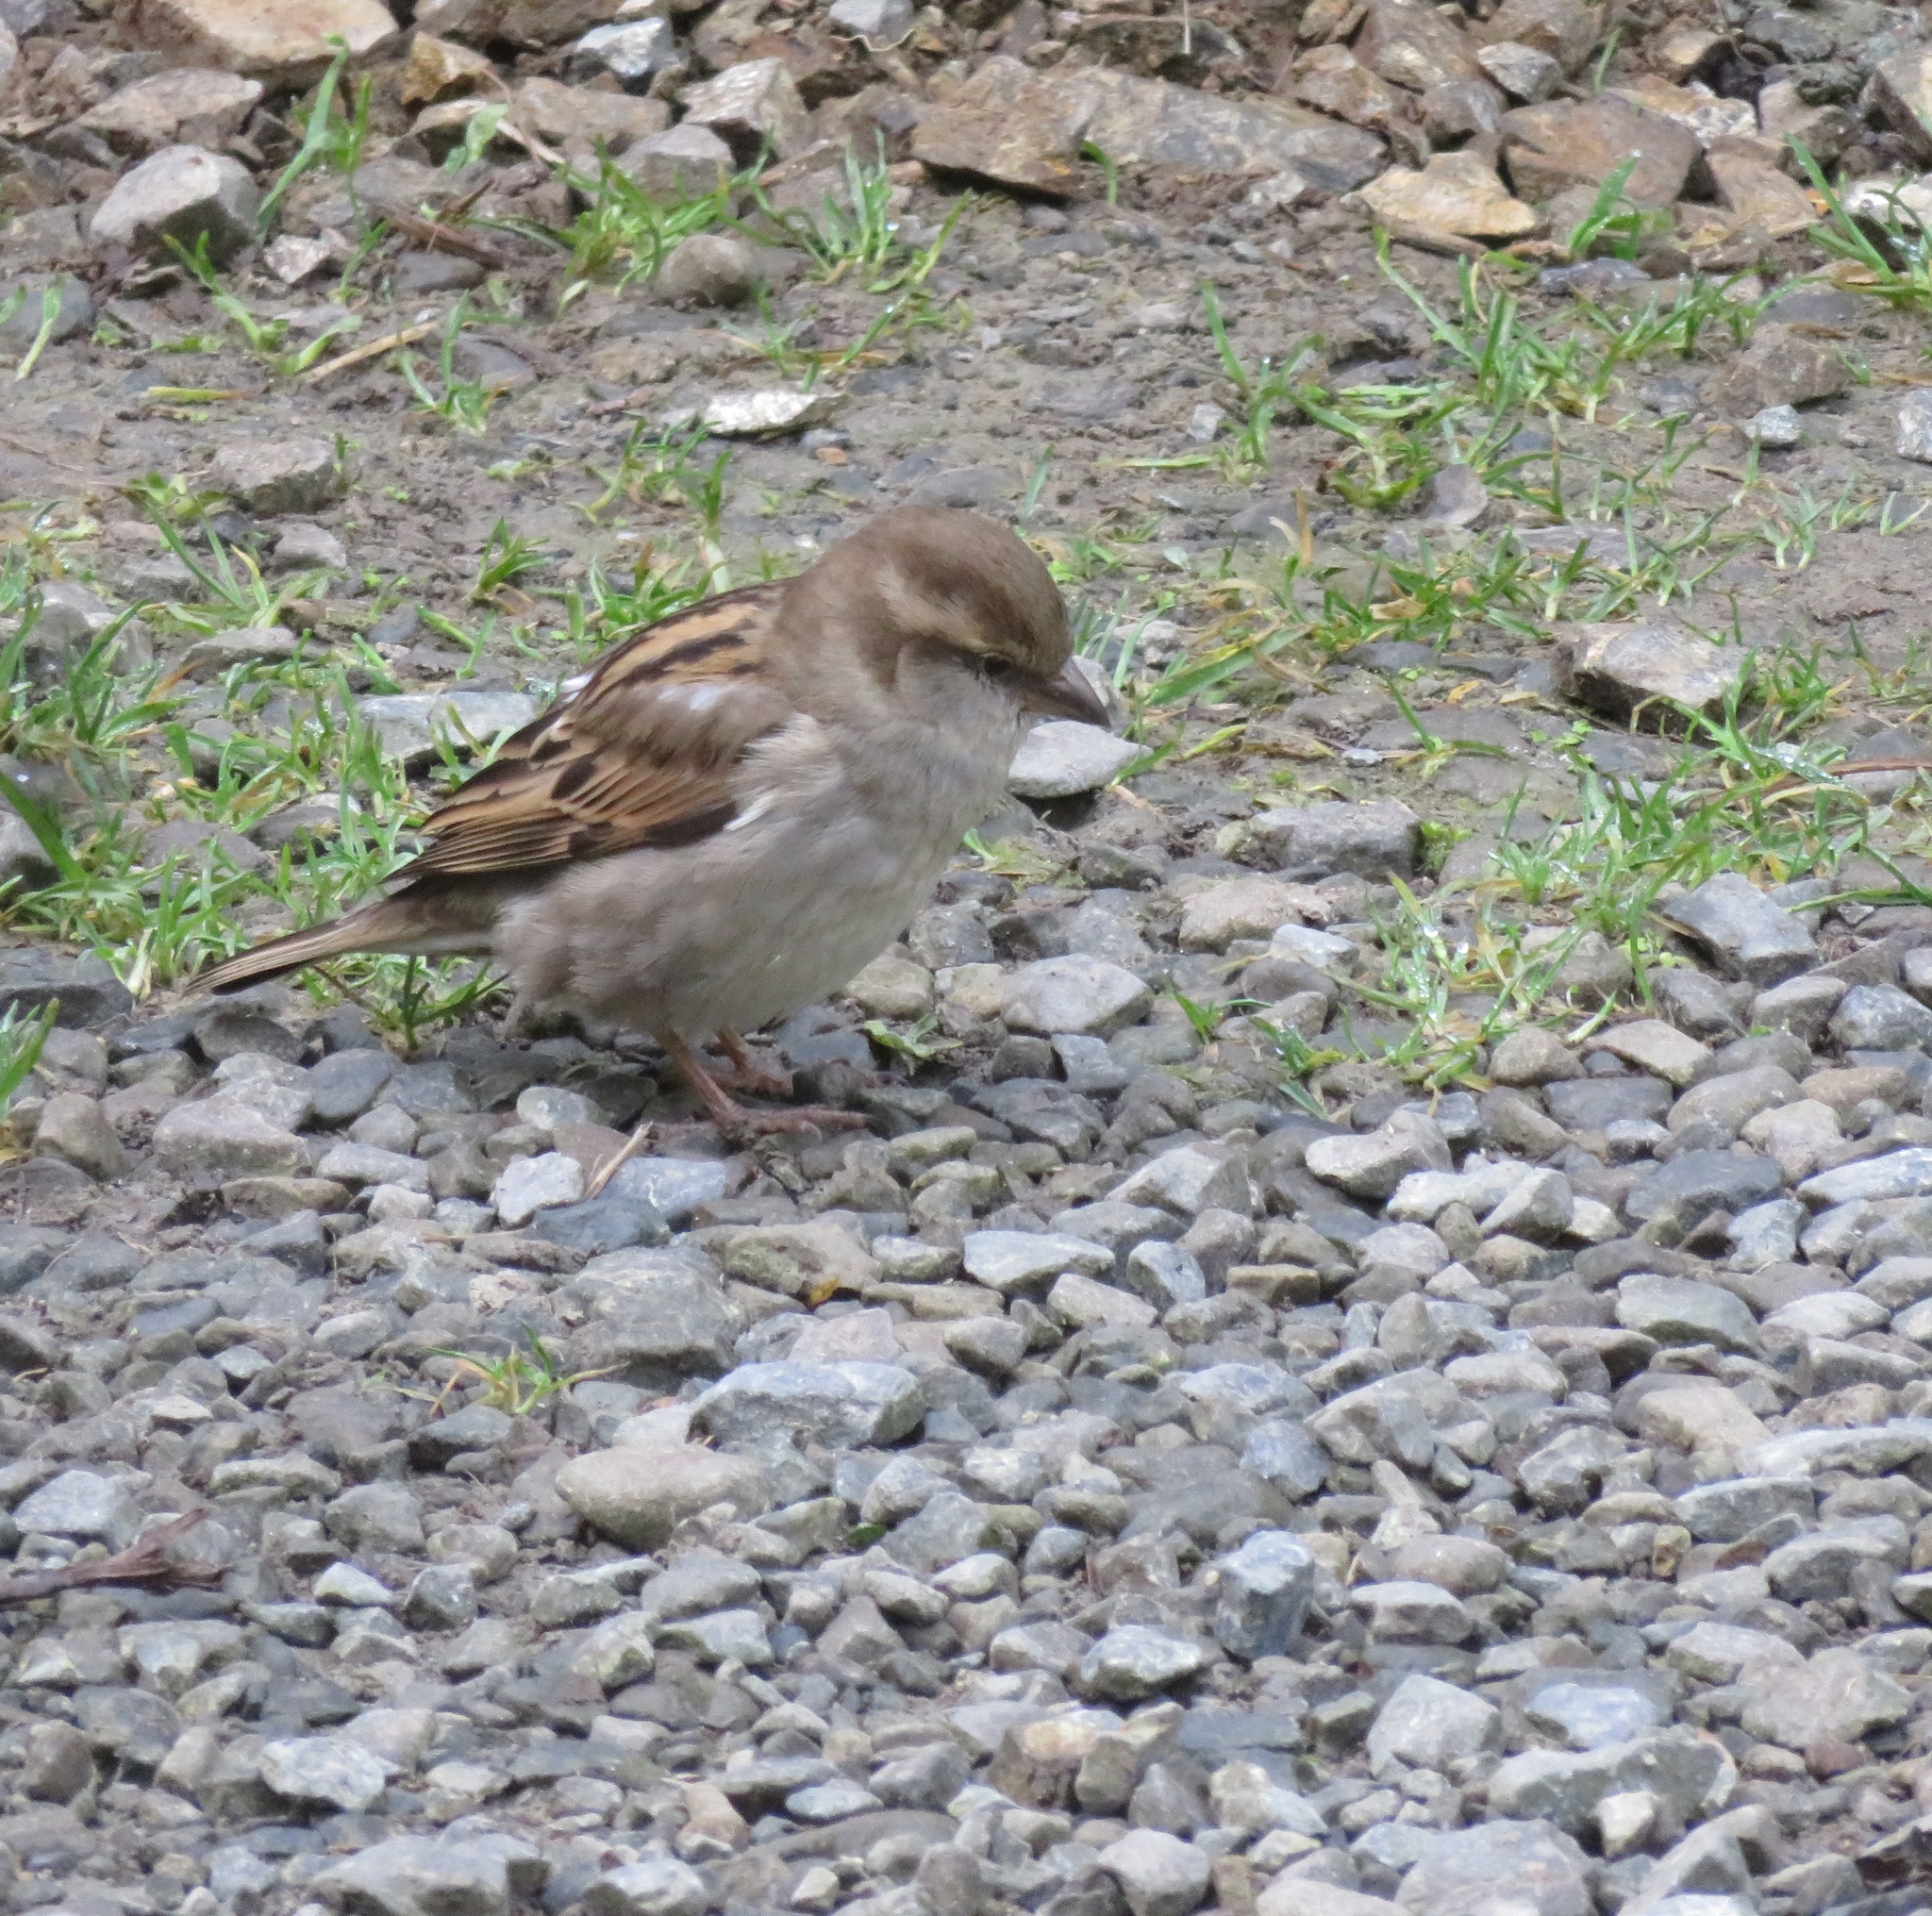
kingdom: Animalia
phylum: Chordata
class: Aves
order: Passeriformes
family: Passeridae
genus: Passer
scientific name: Passer domesticus
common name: House sparrow
